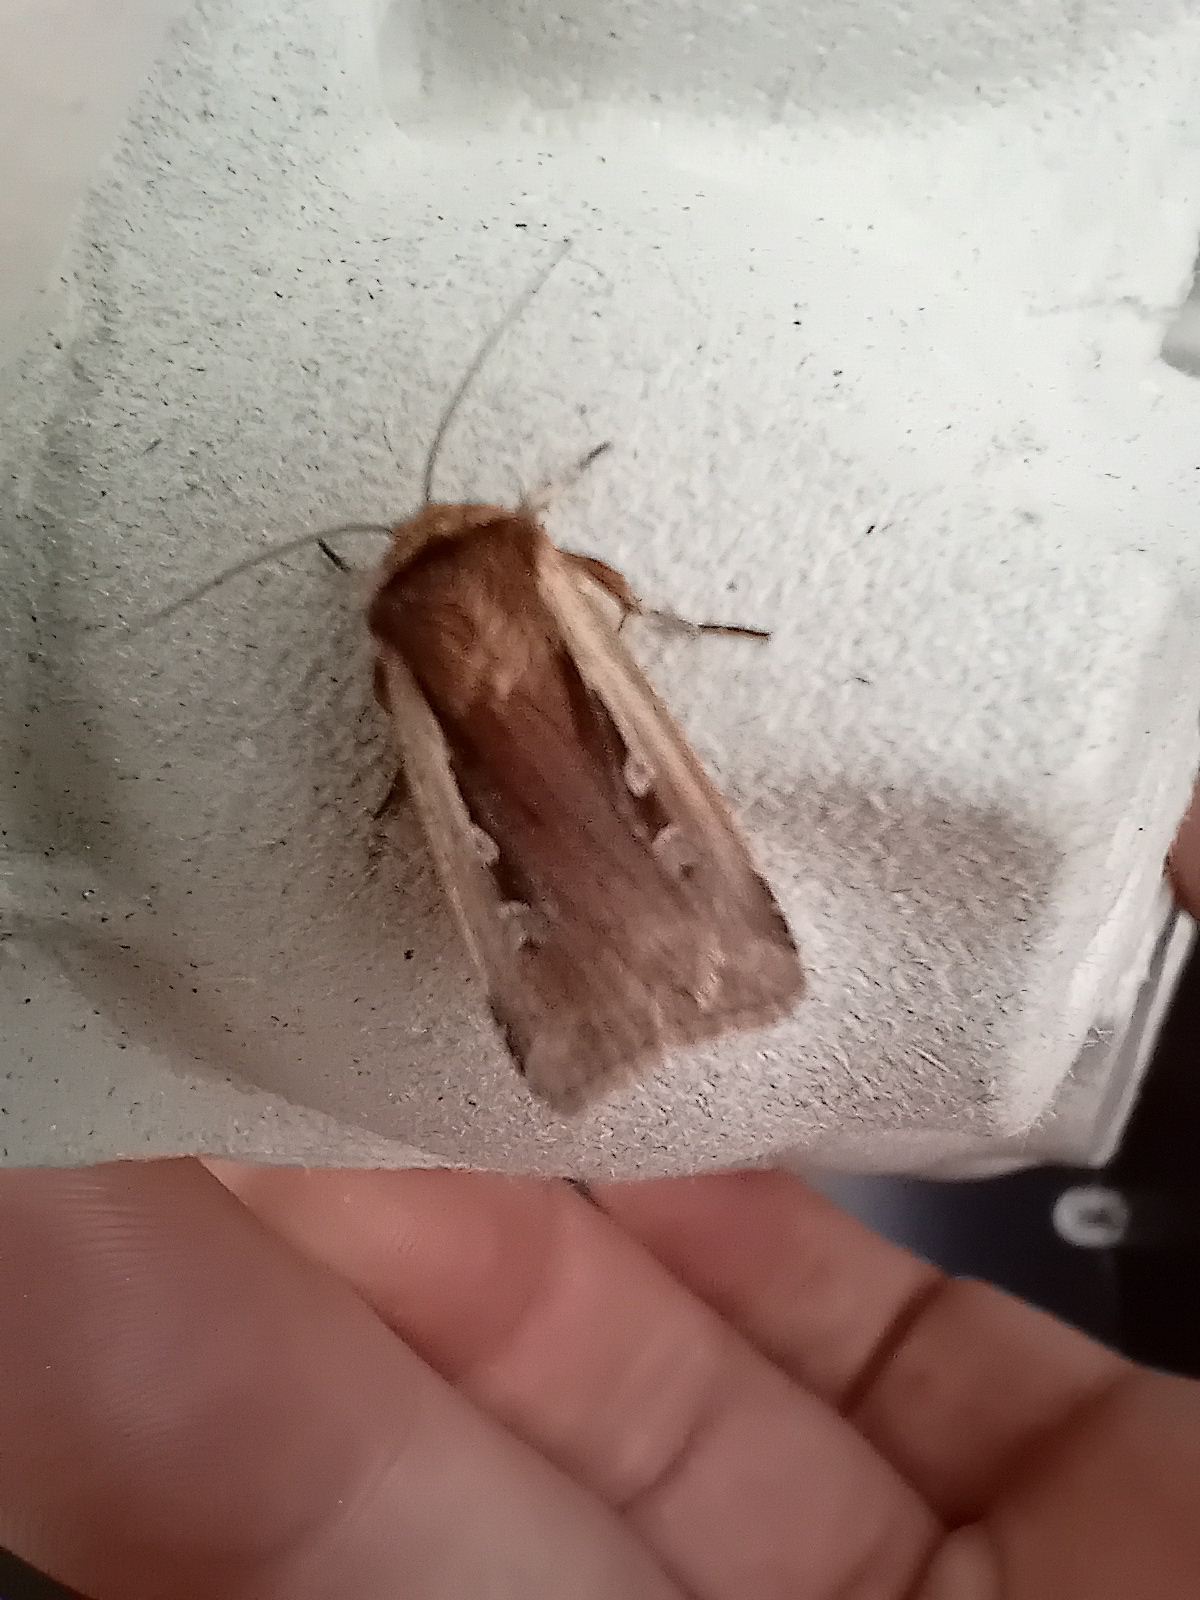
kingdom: Animalia
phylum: Arthropoda
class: Insecta
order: Lepidoptera
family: Noctuidae
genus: Ochropleura
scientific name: Ochropleura plecta
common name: Flame shoulder
